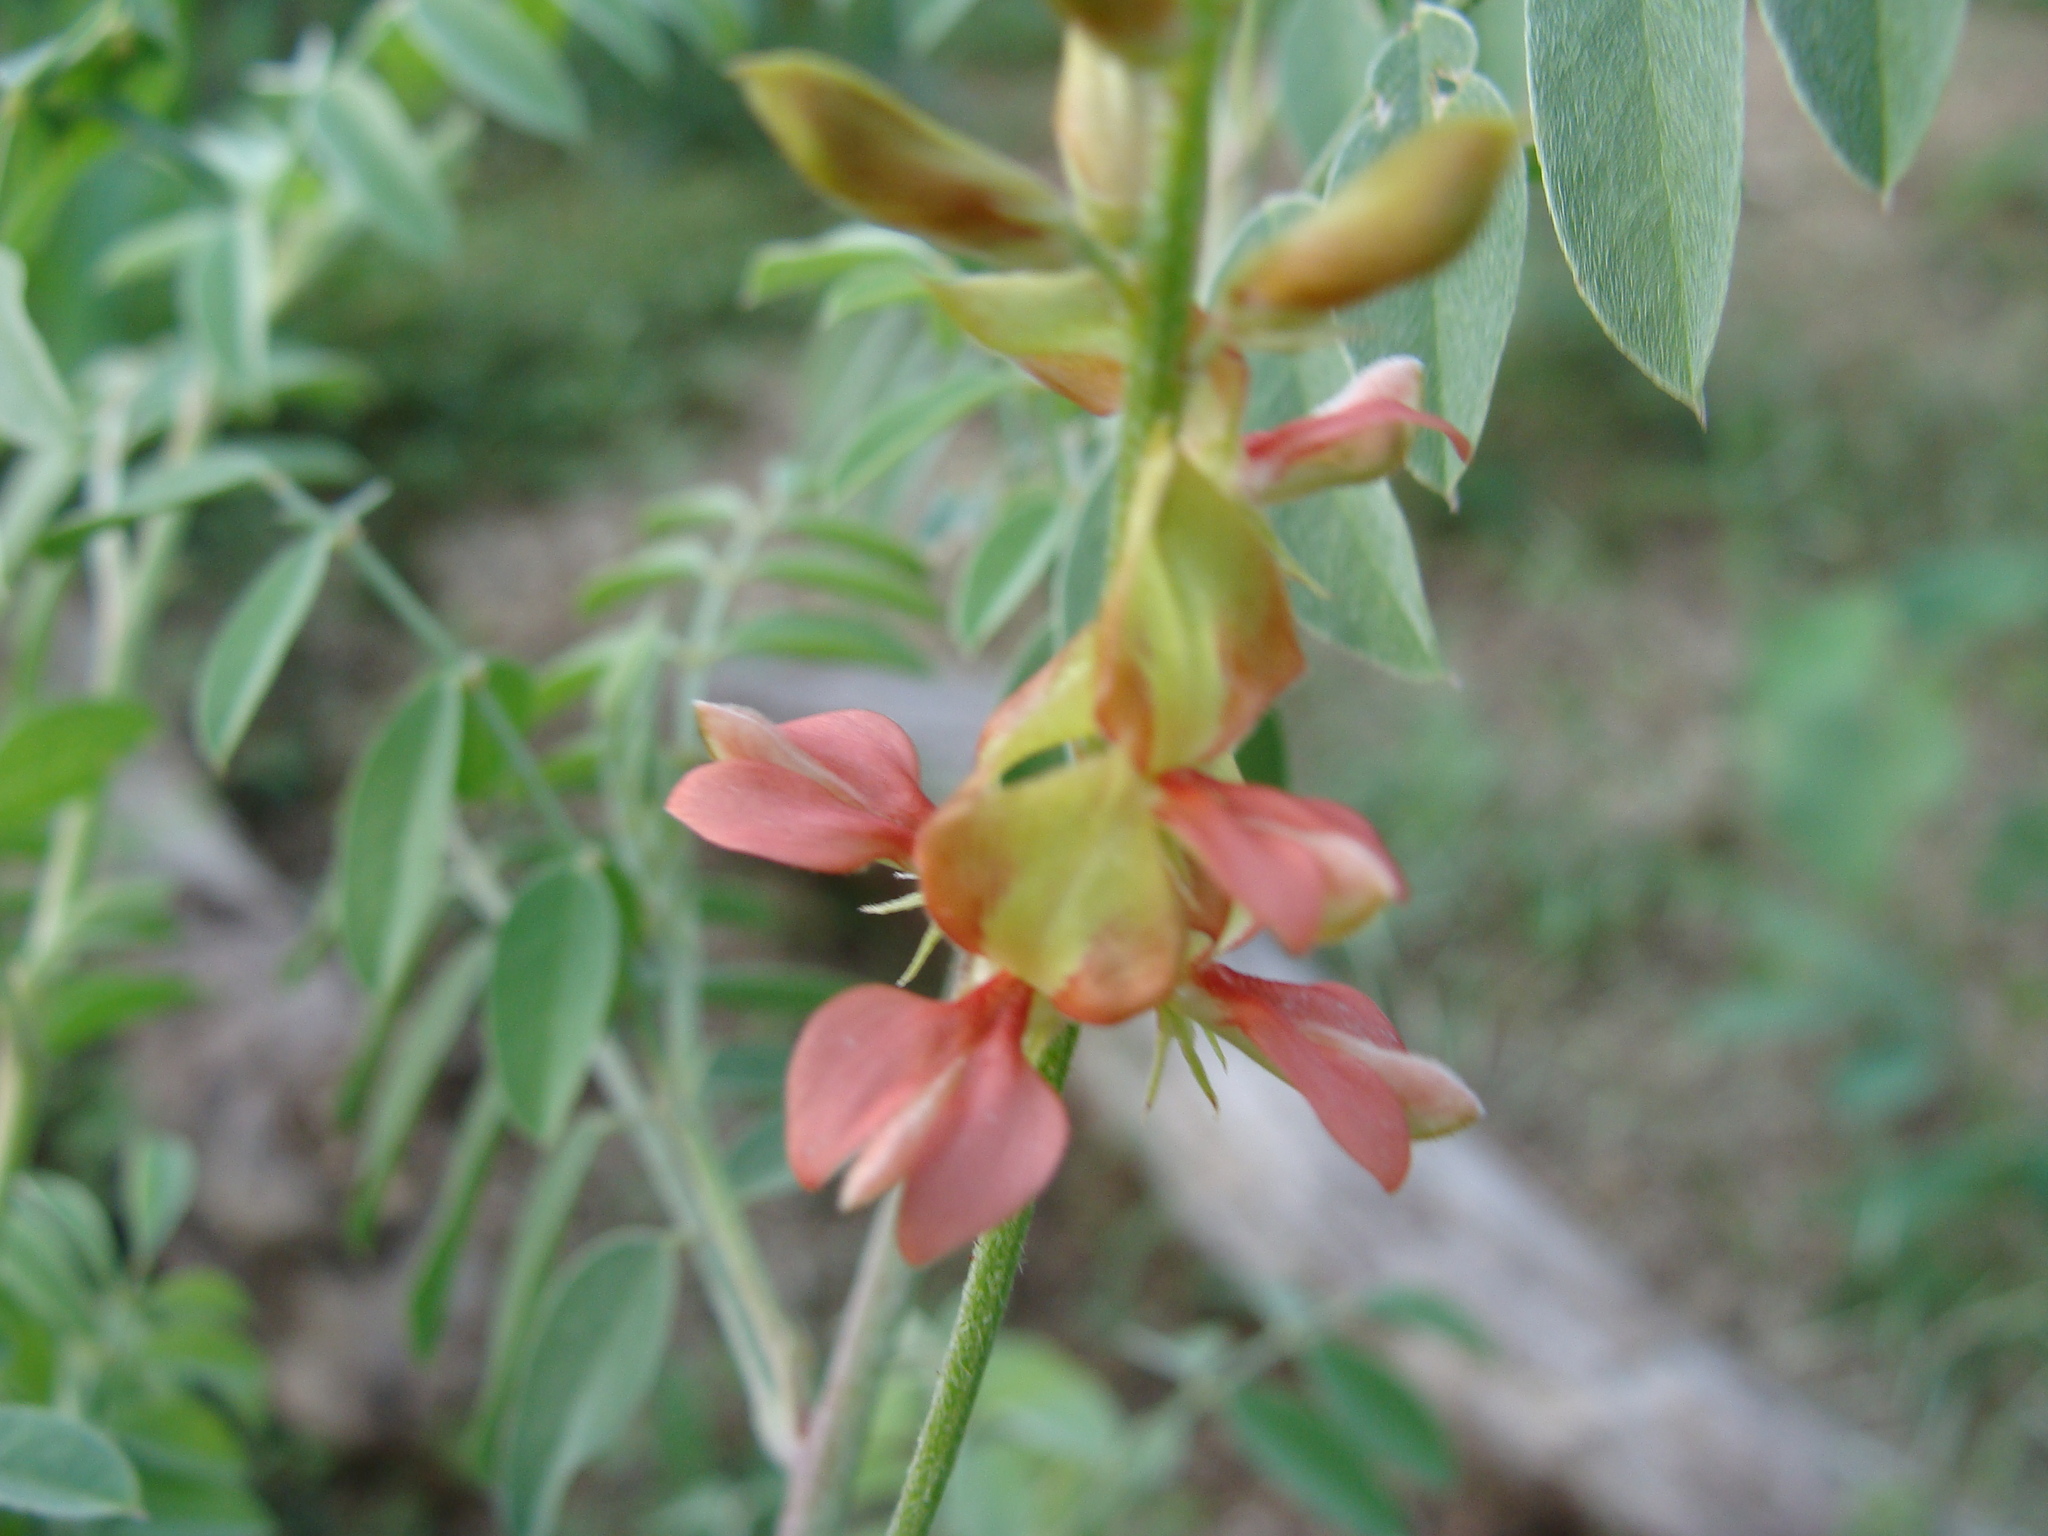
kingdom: Plantae
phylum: Tracheophyta
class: Magnoliopsida
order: Fabales
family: Fabaceae
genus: Indigofera
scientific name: Indigofera fruticosa
